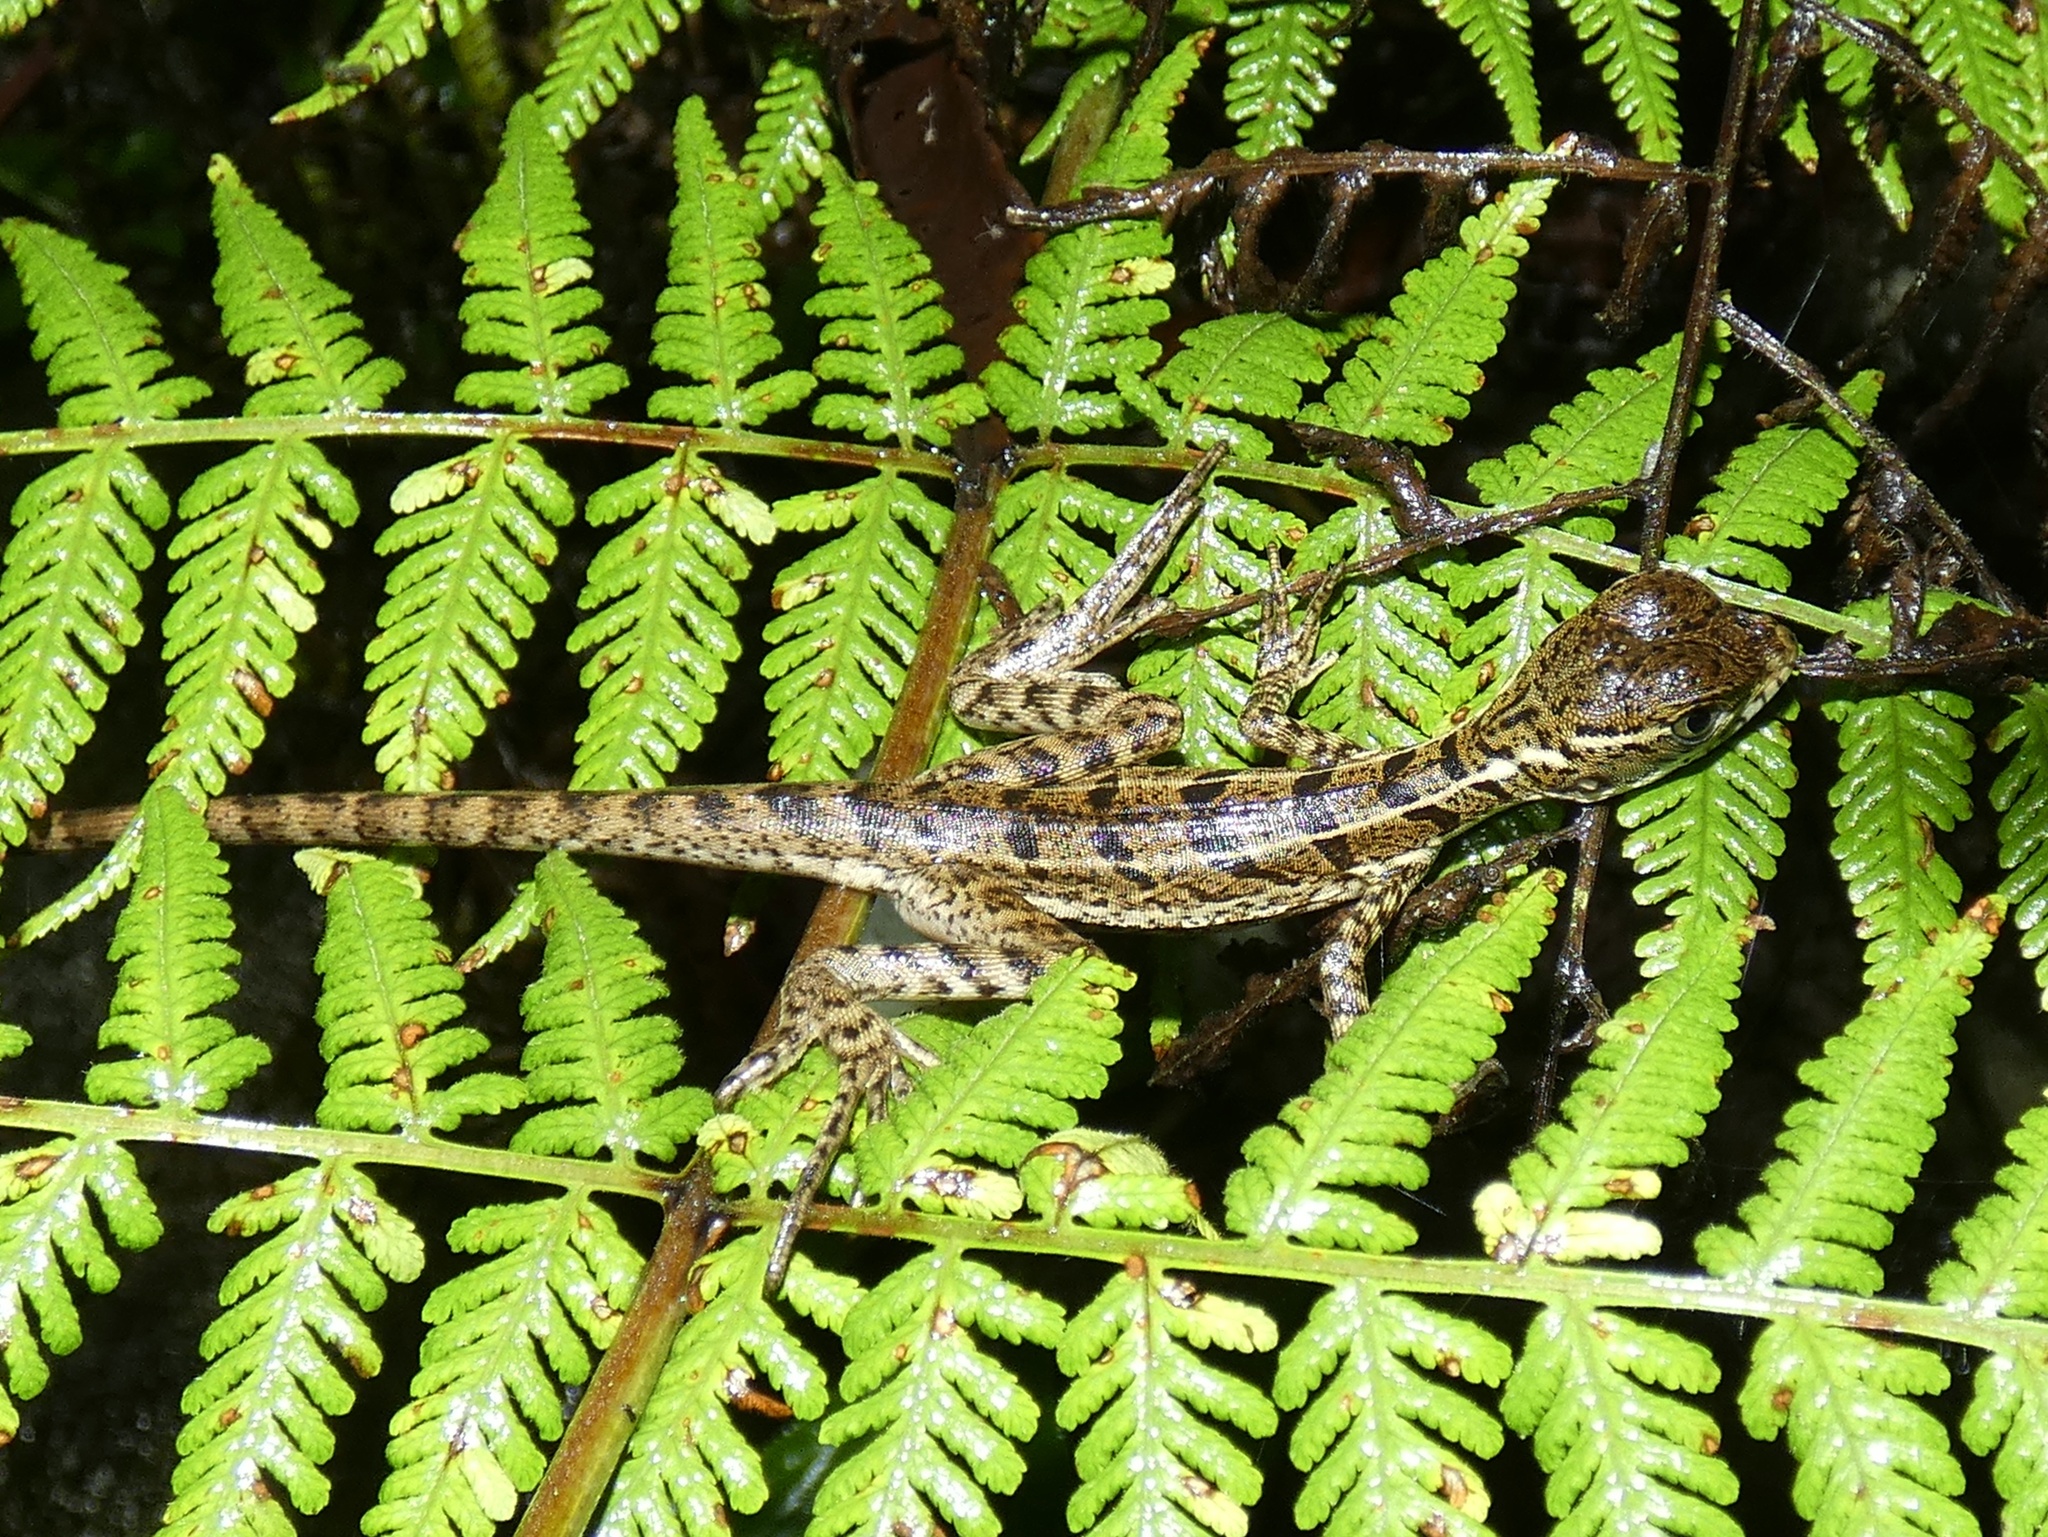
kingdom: Animalia
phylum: Chordata
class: Squamata
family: Corytophanidae
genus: Basiliscus
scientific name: Basiliscus basiliscus
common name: Common basilisk
